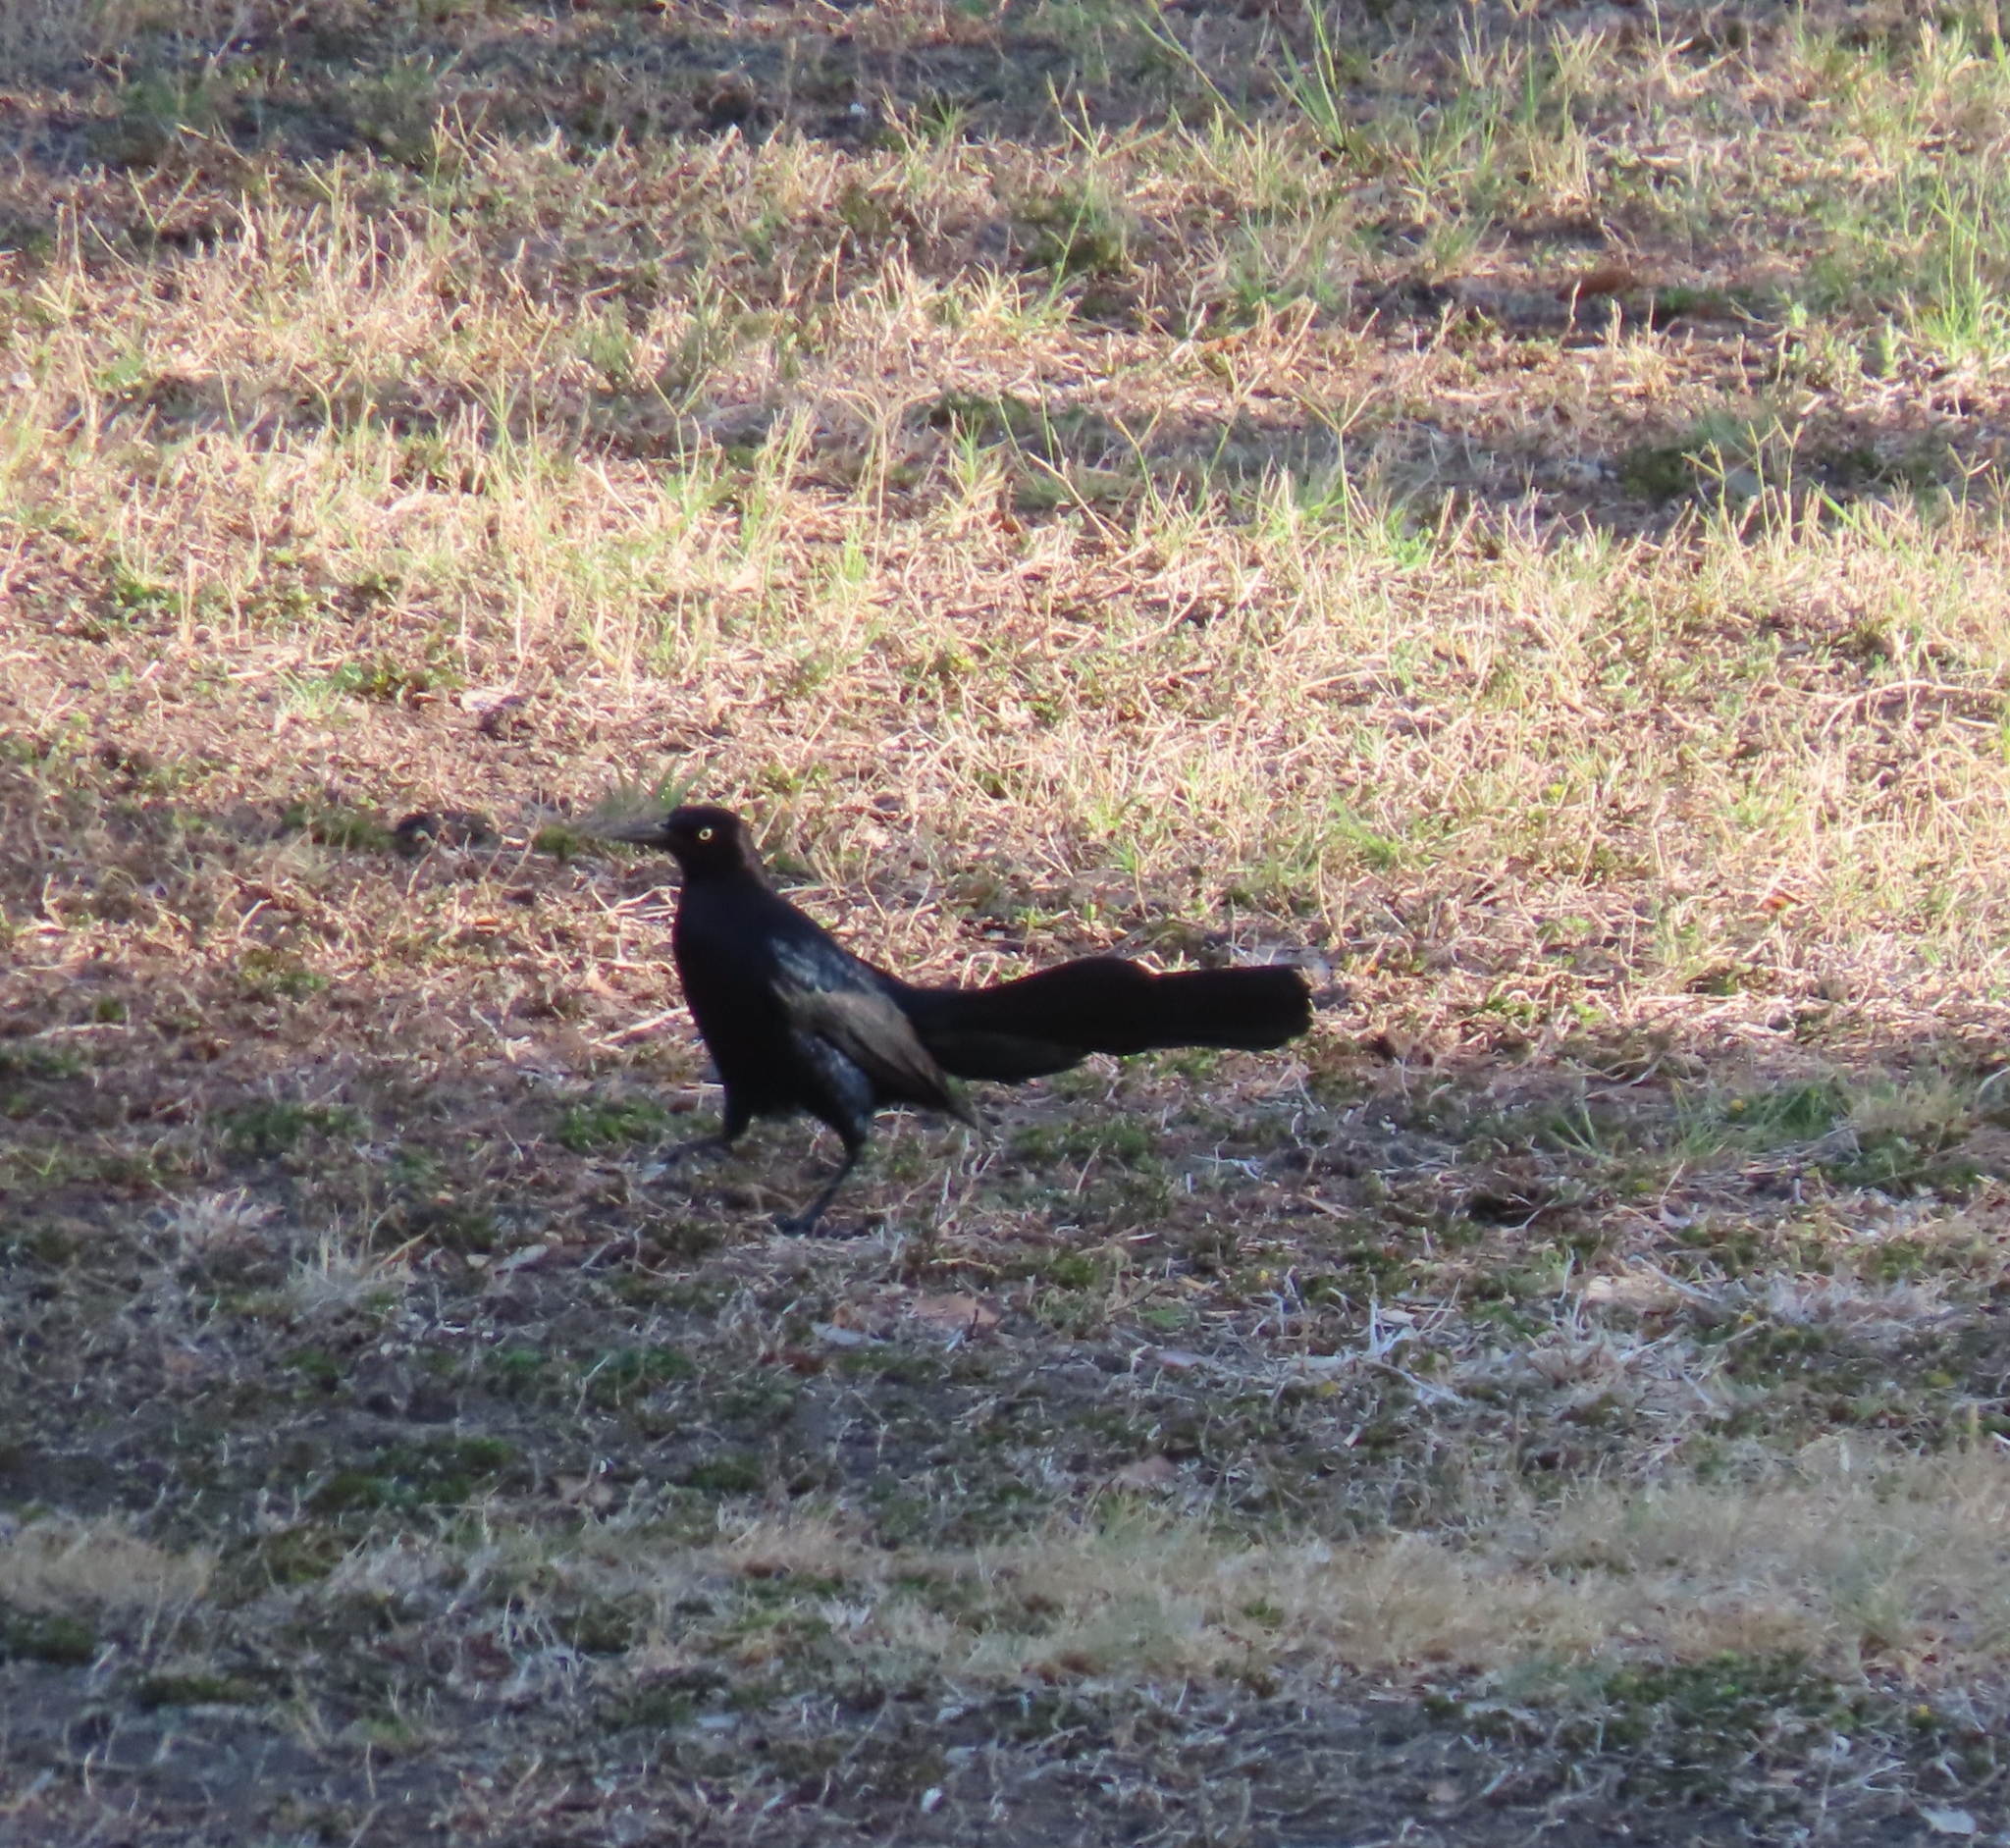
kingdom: Animalia
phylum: Chordata
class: Aves
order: Passeriformes
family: Icteridae
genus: Quiscalus
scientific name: Quiscalus mexicanus
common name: Great-tailed grackle
